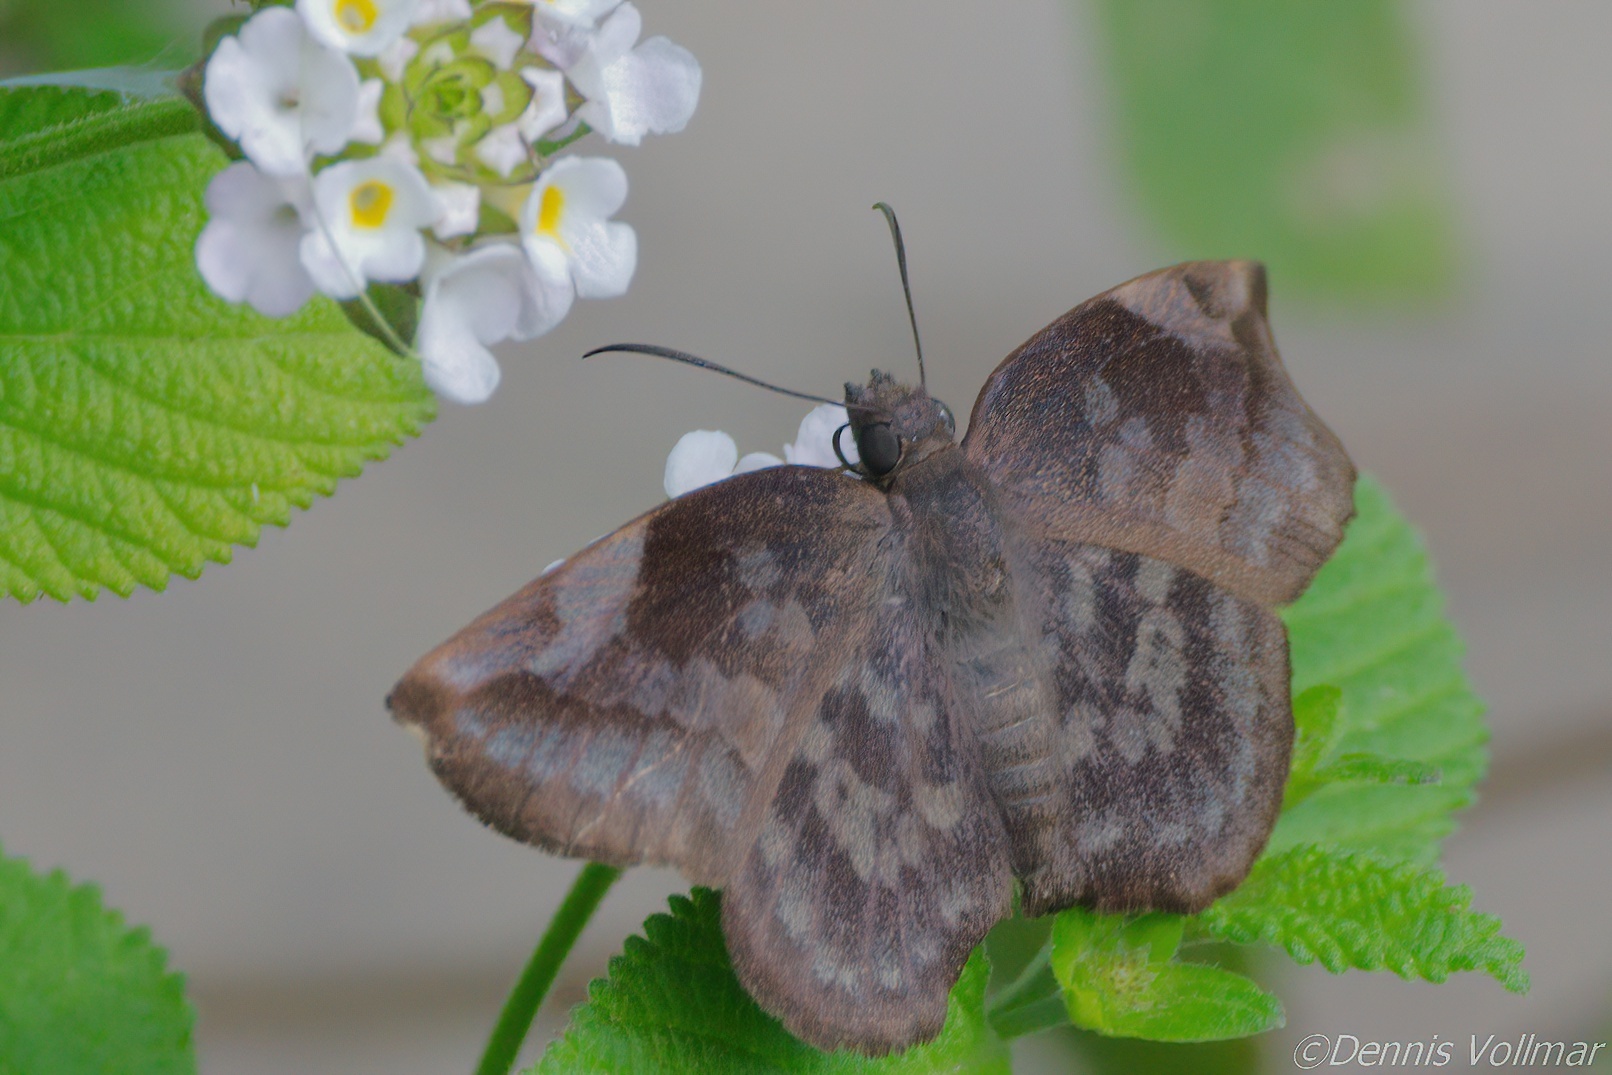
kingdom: Animalia
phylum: Arthropoda
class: Insecta
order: Lepidoptera
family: Hesperiidae
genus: Achlyodes
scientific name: Achlyodes thraso
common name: Sickle-winged skipper
